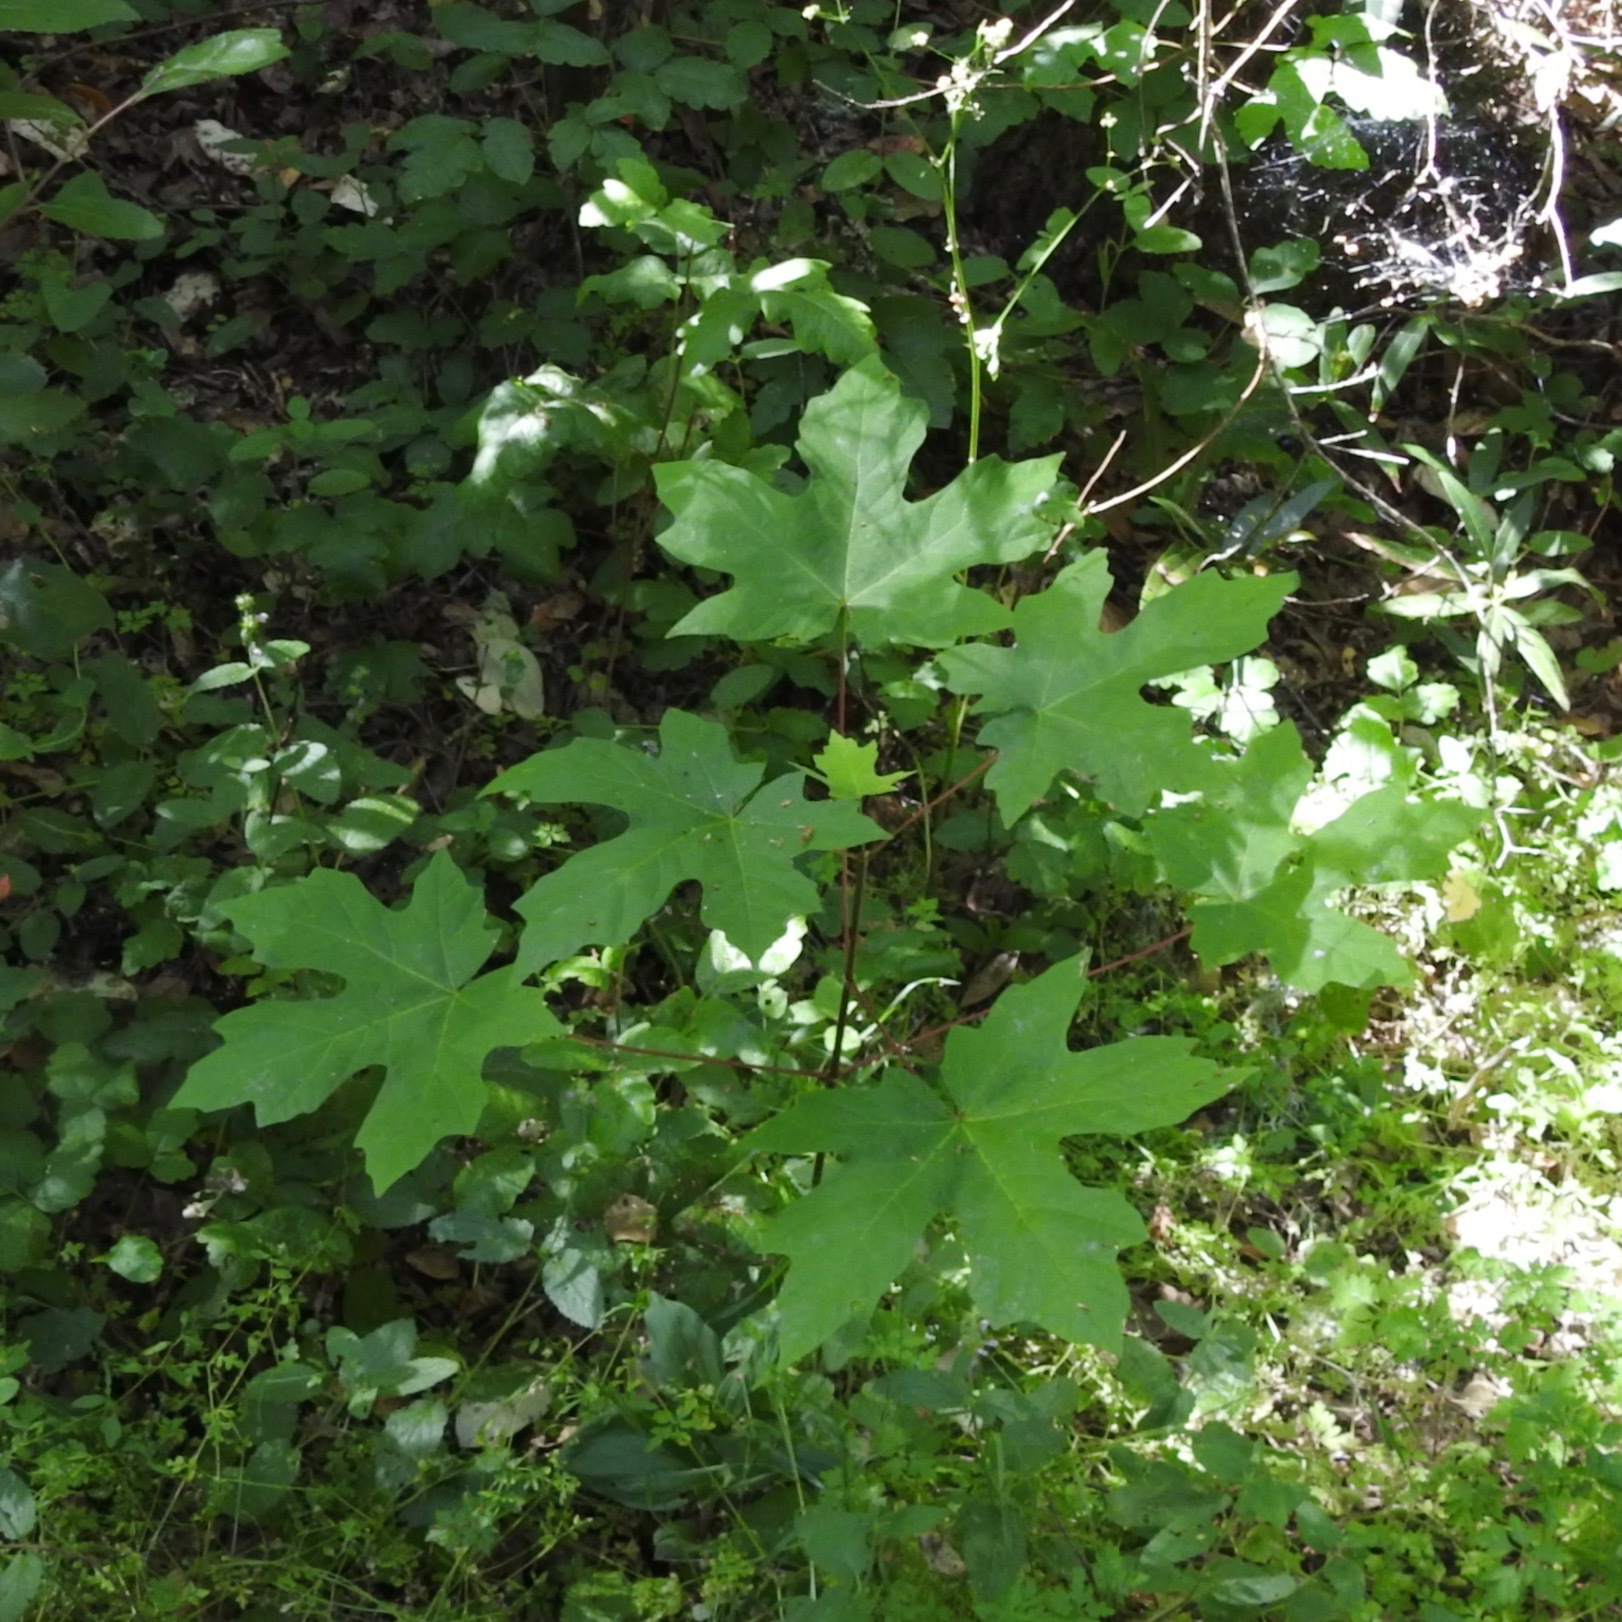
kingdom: Plantae
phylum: Tracheophyta
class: Magnoliopsida
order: Sapindales
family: Sapindaceae
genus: Acer
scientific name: Acer macrophyllum
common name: Oregon maple
